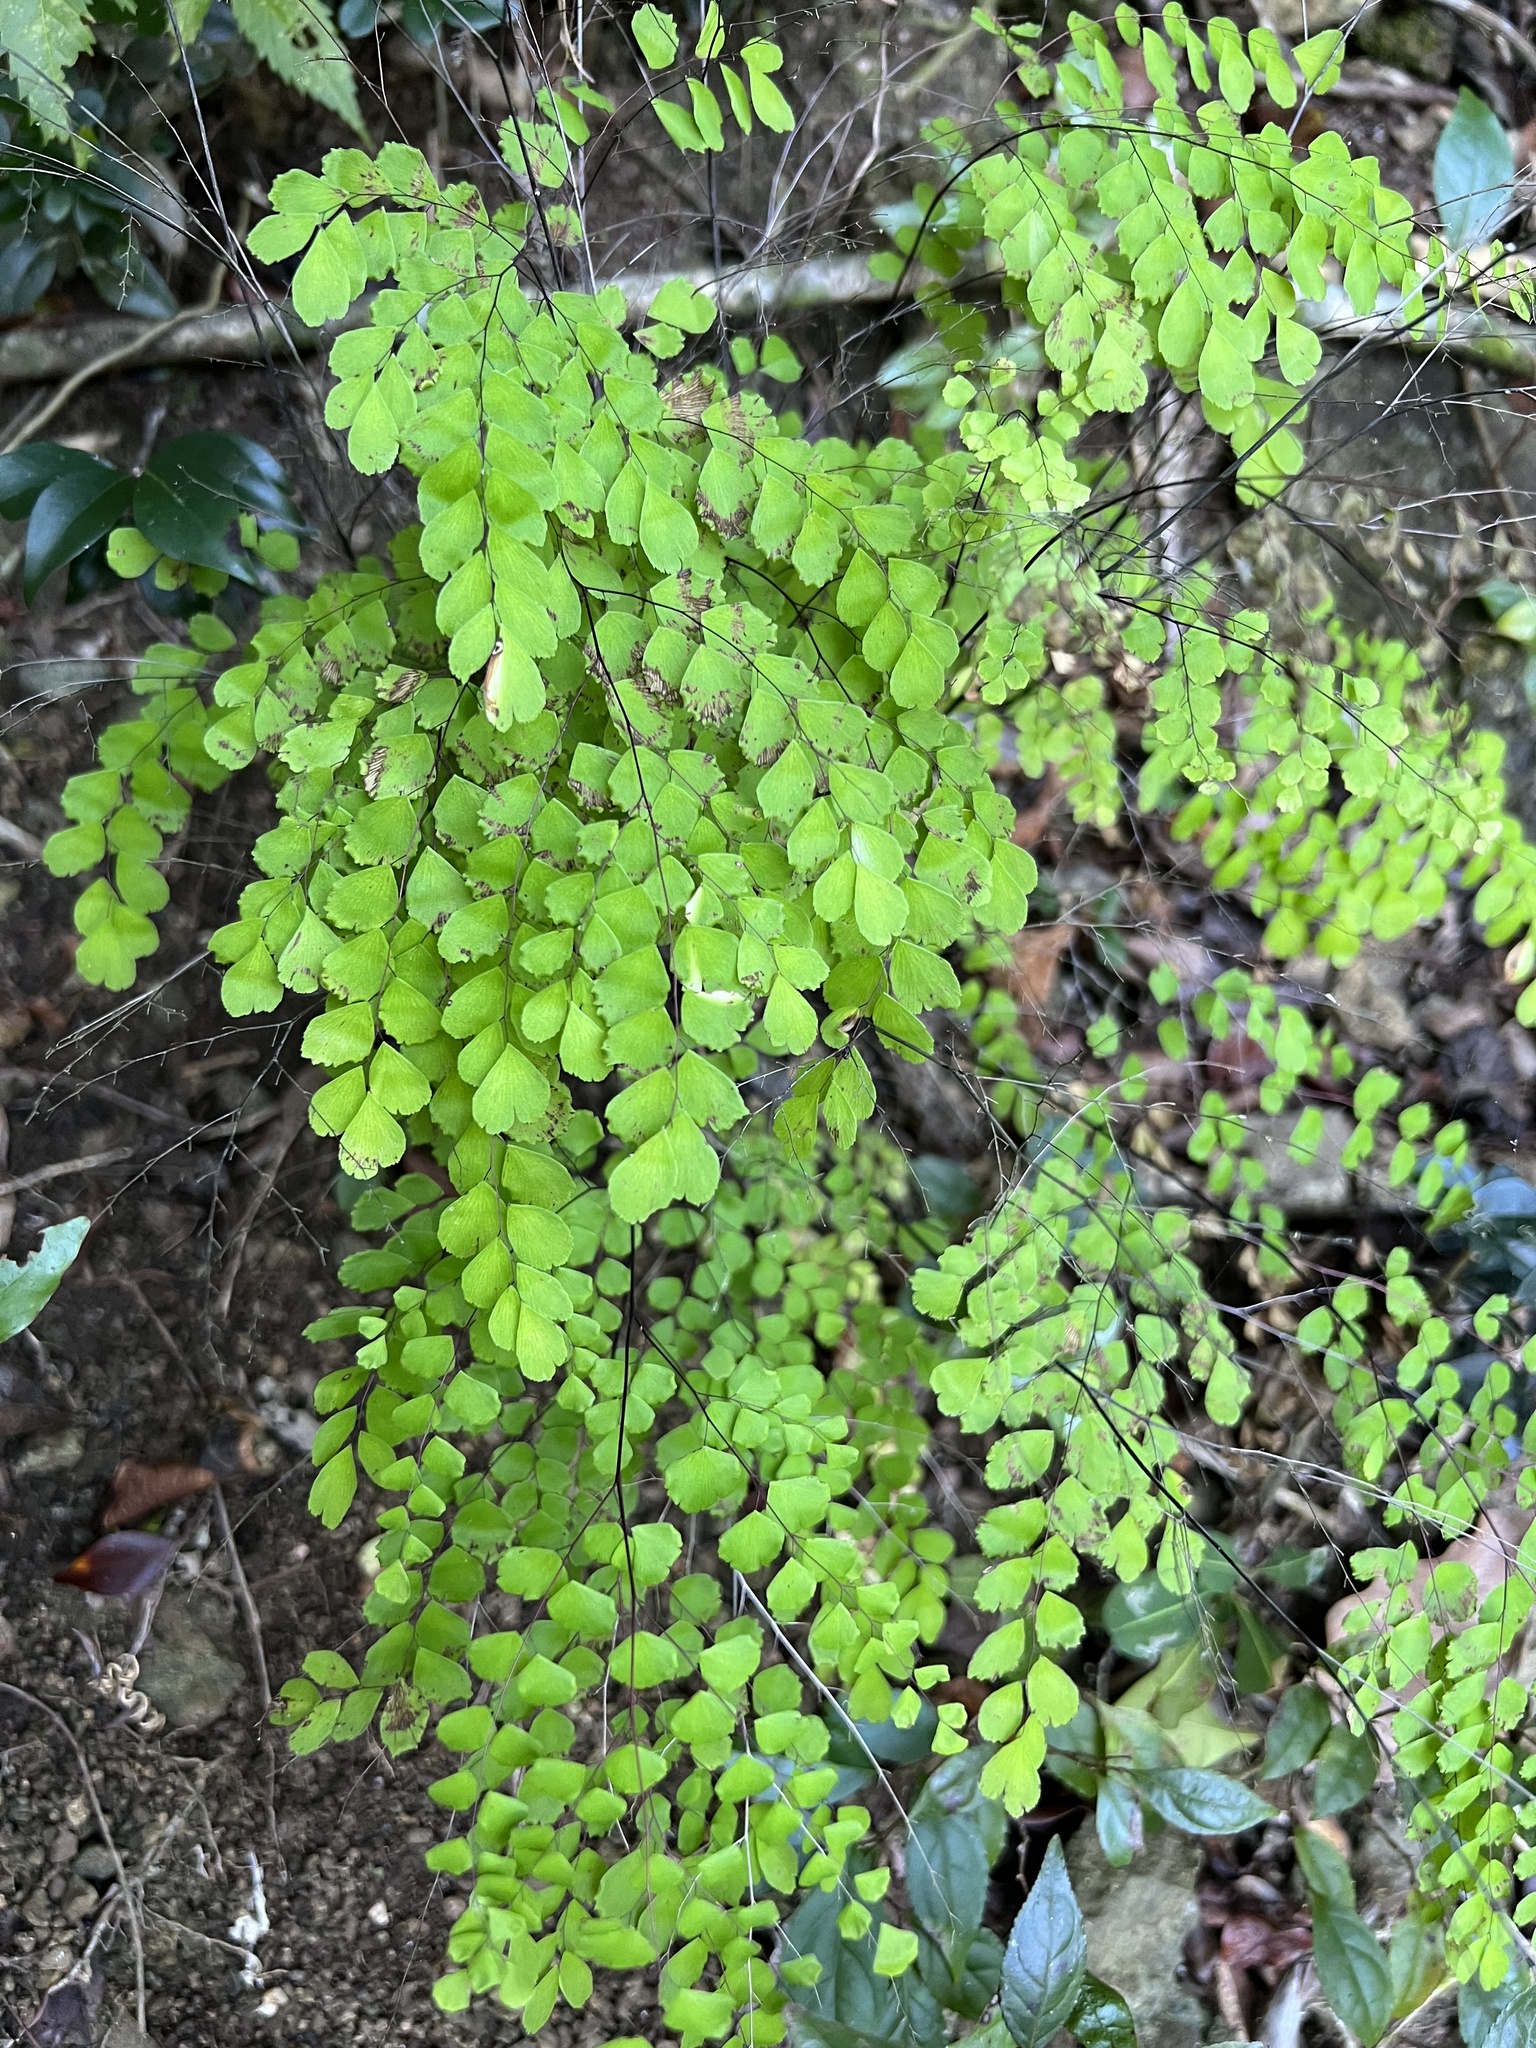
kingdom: Plantae
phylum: Tracheophyta
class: Polypodiopsida
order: Polypodiales
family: Pteridaceae
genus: Adiantum
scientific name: Adiantum fragile
